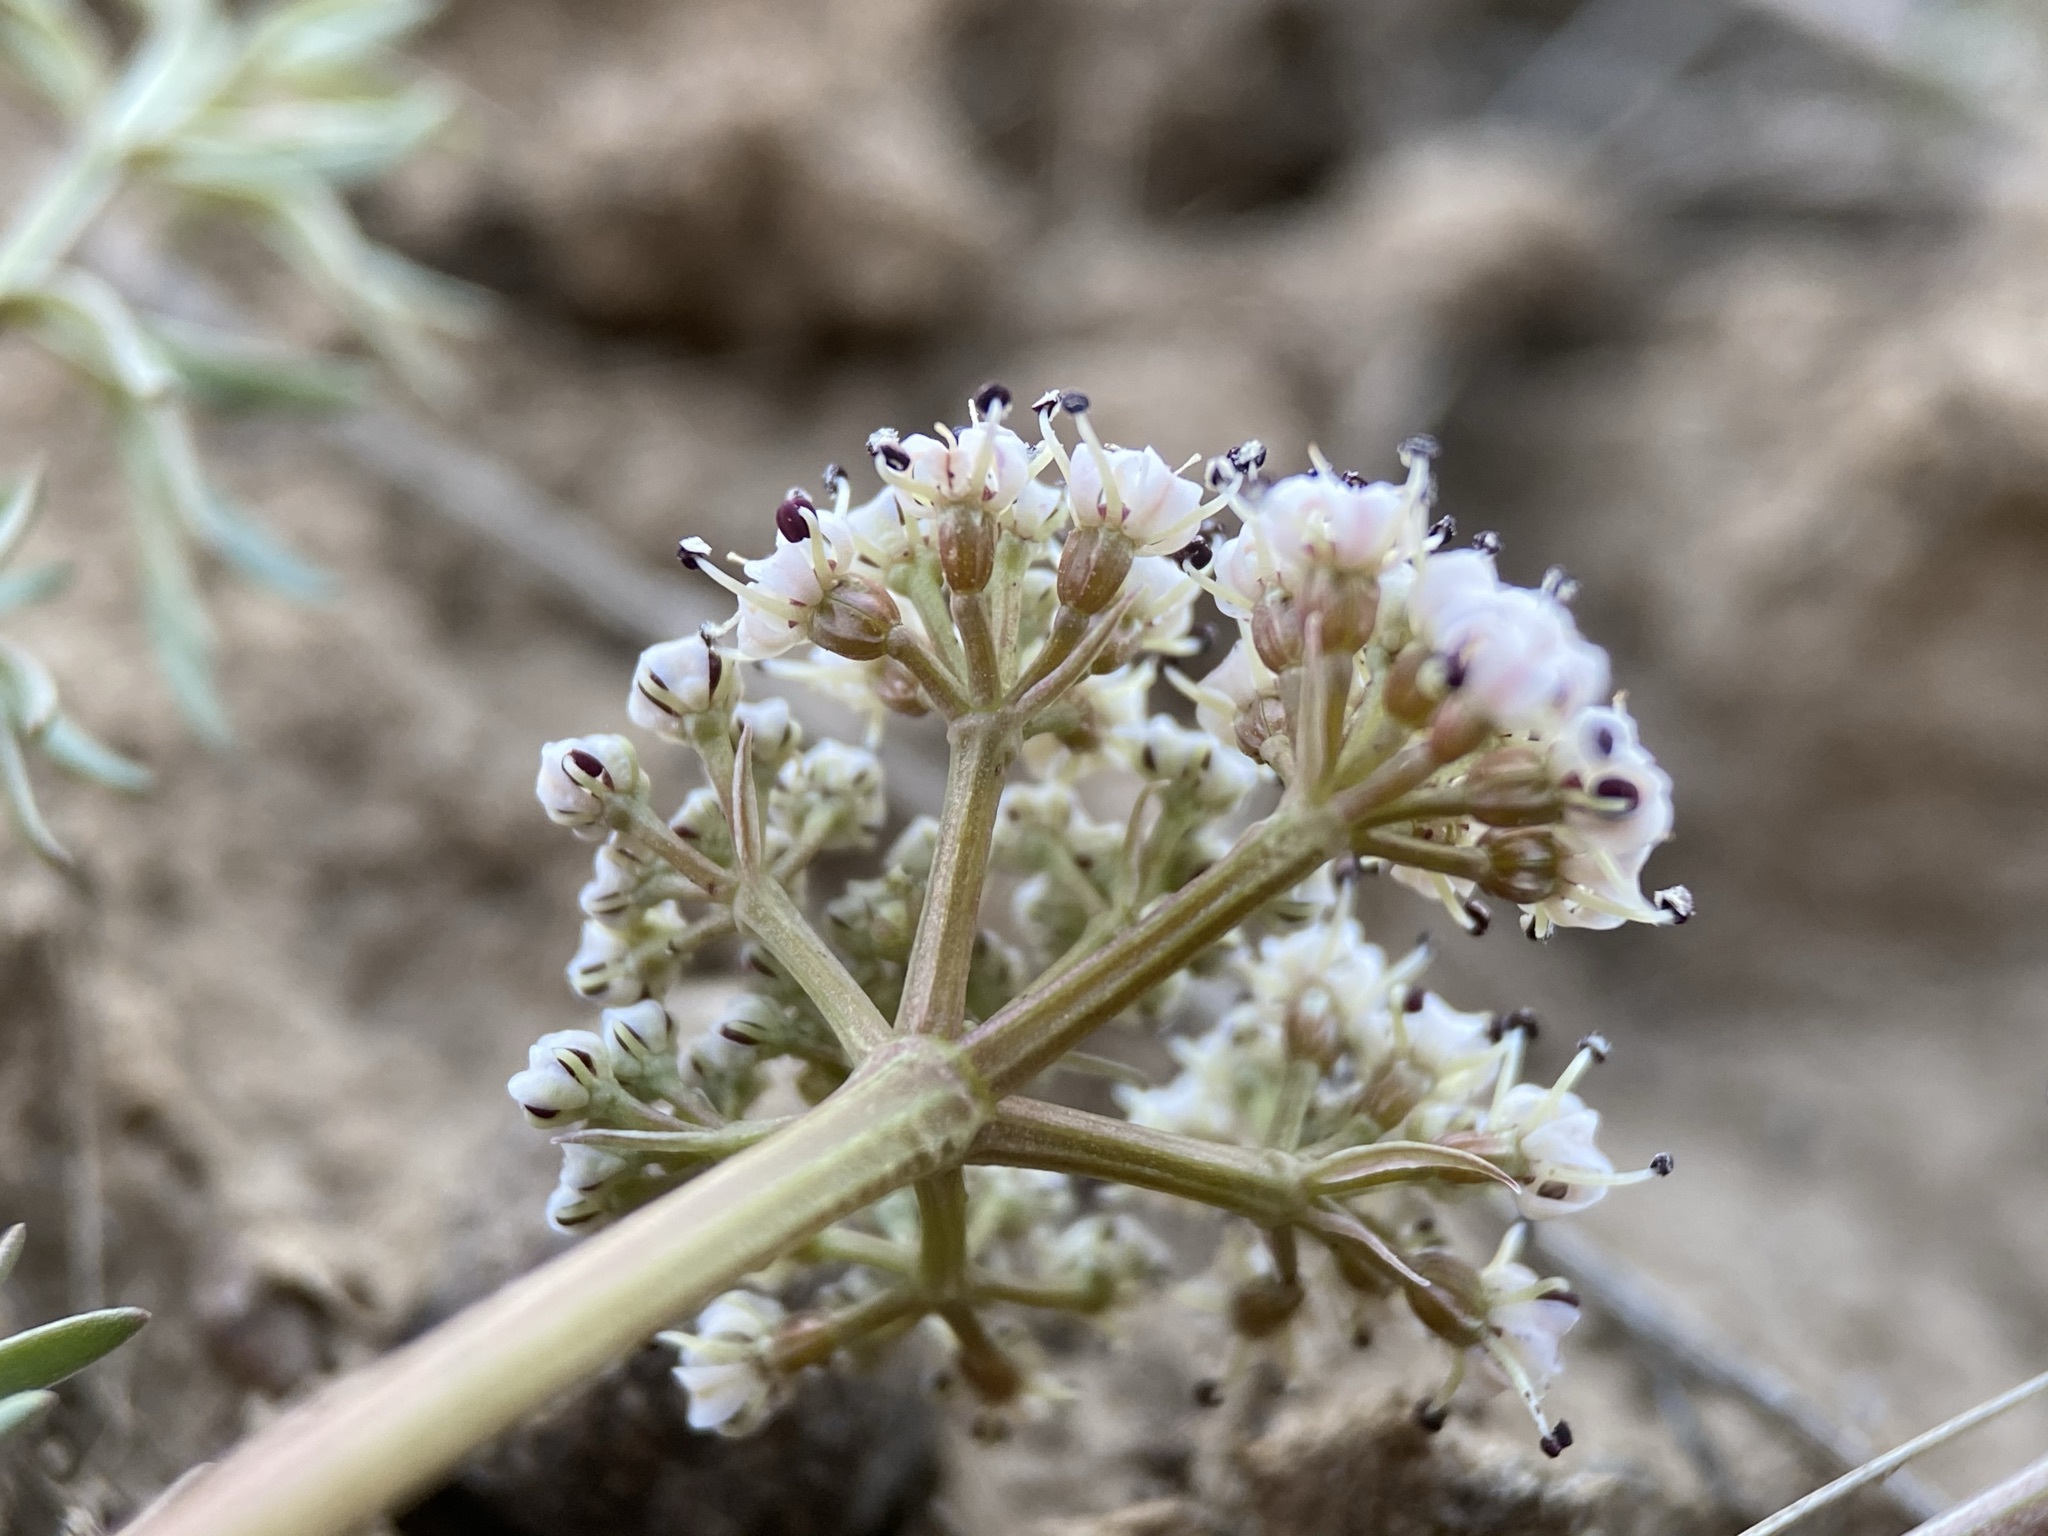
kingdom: Plantae
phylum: Tracheophyta
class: Magnoliopsida
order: Apiales
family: Apiaceae
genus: Lomatium
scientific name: Lomatium canbyi
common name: Chucklusa
